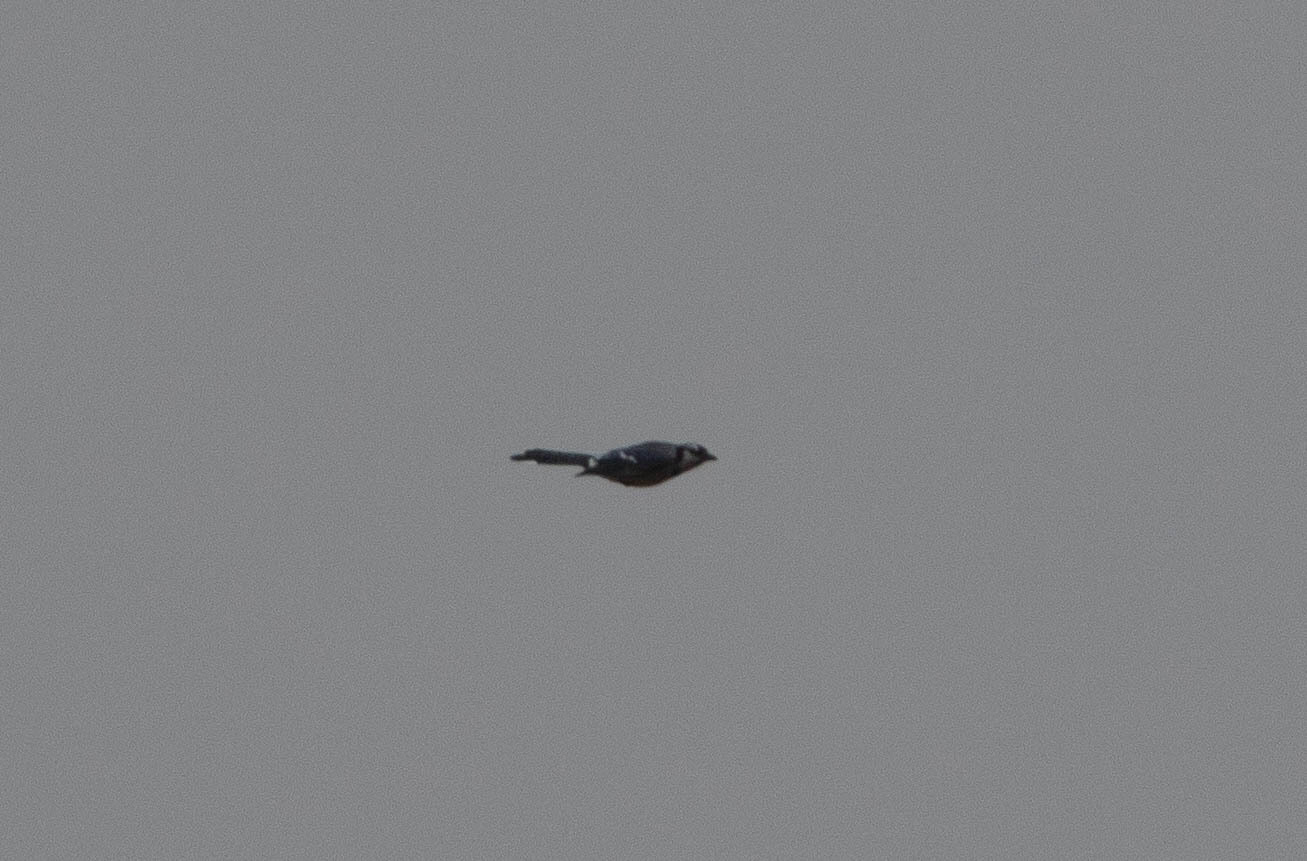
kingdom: Animalia
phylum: Chordata
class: Aves
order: Passeriformes
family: Corvidae
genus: Cyanocitta
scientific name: Cyanocitta cristata
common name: Blue jay
